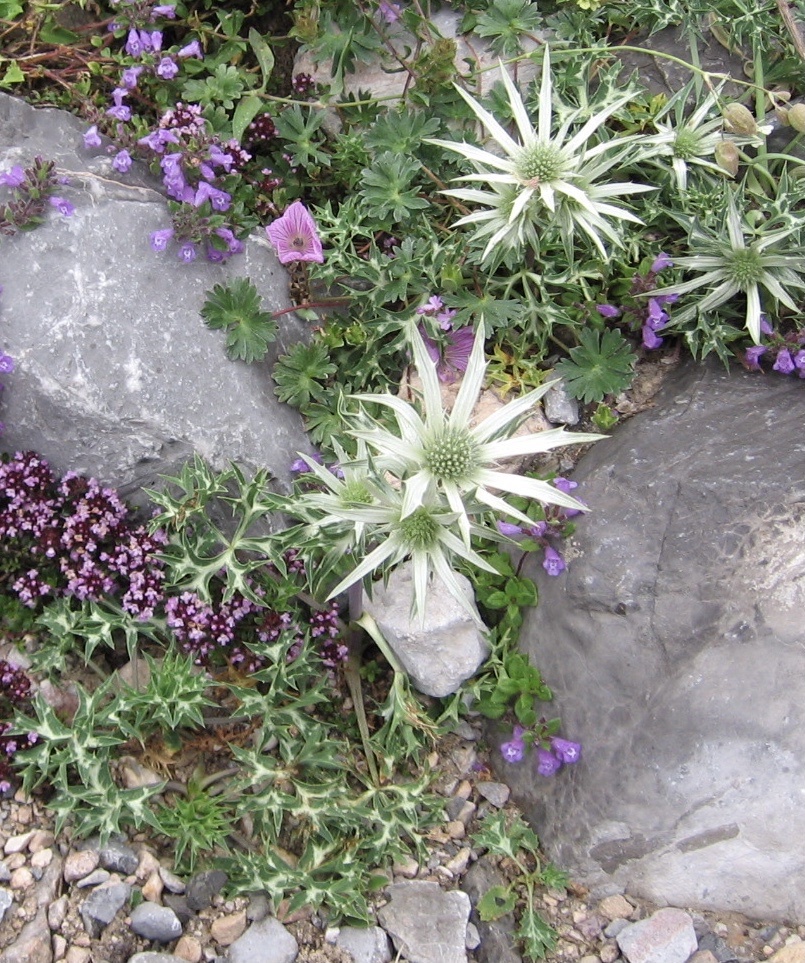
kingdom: Plantae
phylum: Tracheophyta
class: Magnoliopsida
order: Apiales
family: Apiaceae
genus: Eryngium
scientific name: Eryngium bourgatii
